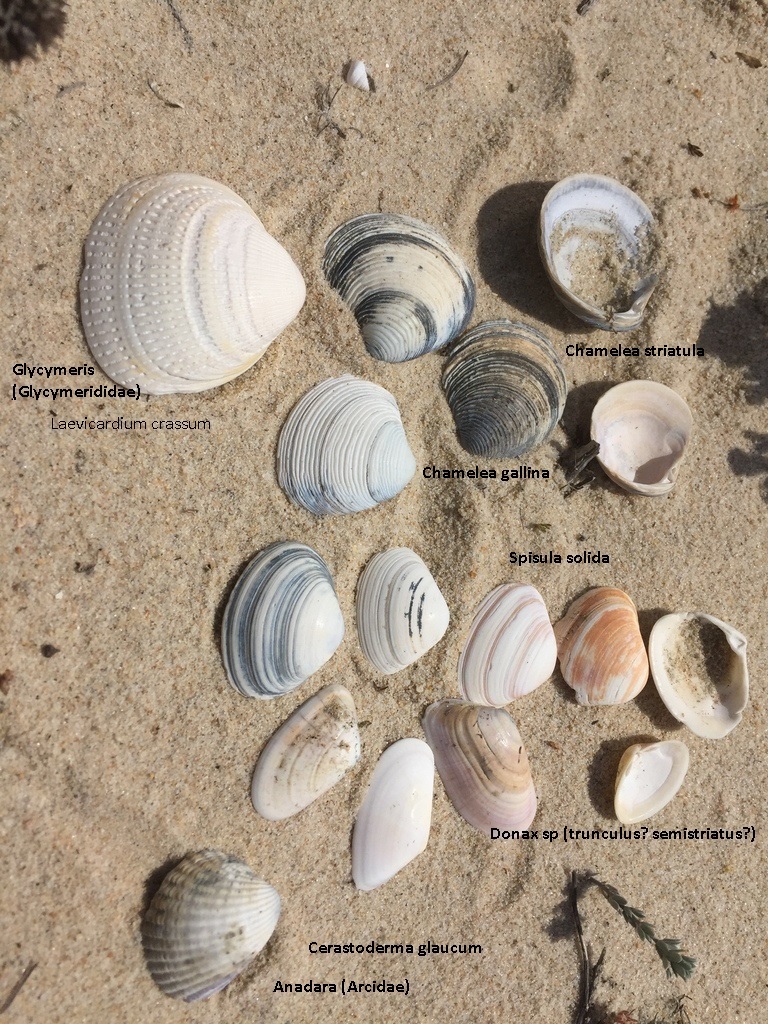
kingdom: Animalia
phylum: Mollusca
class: Bivalvia
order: Venerida
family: Mactridae
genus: Spisula
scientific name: Spisula solida
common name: Thick trough shell
